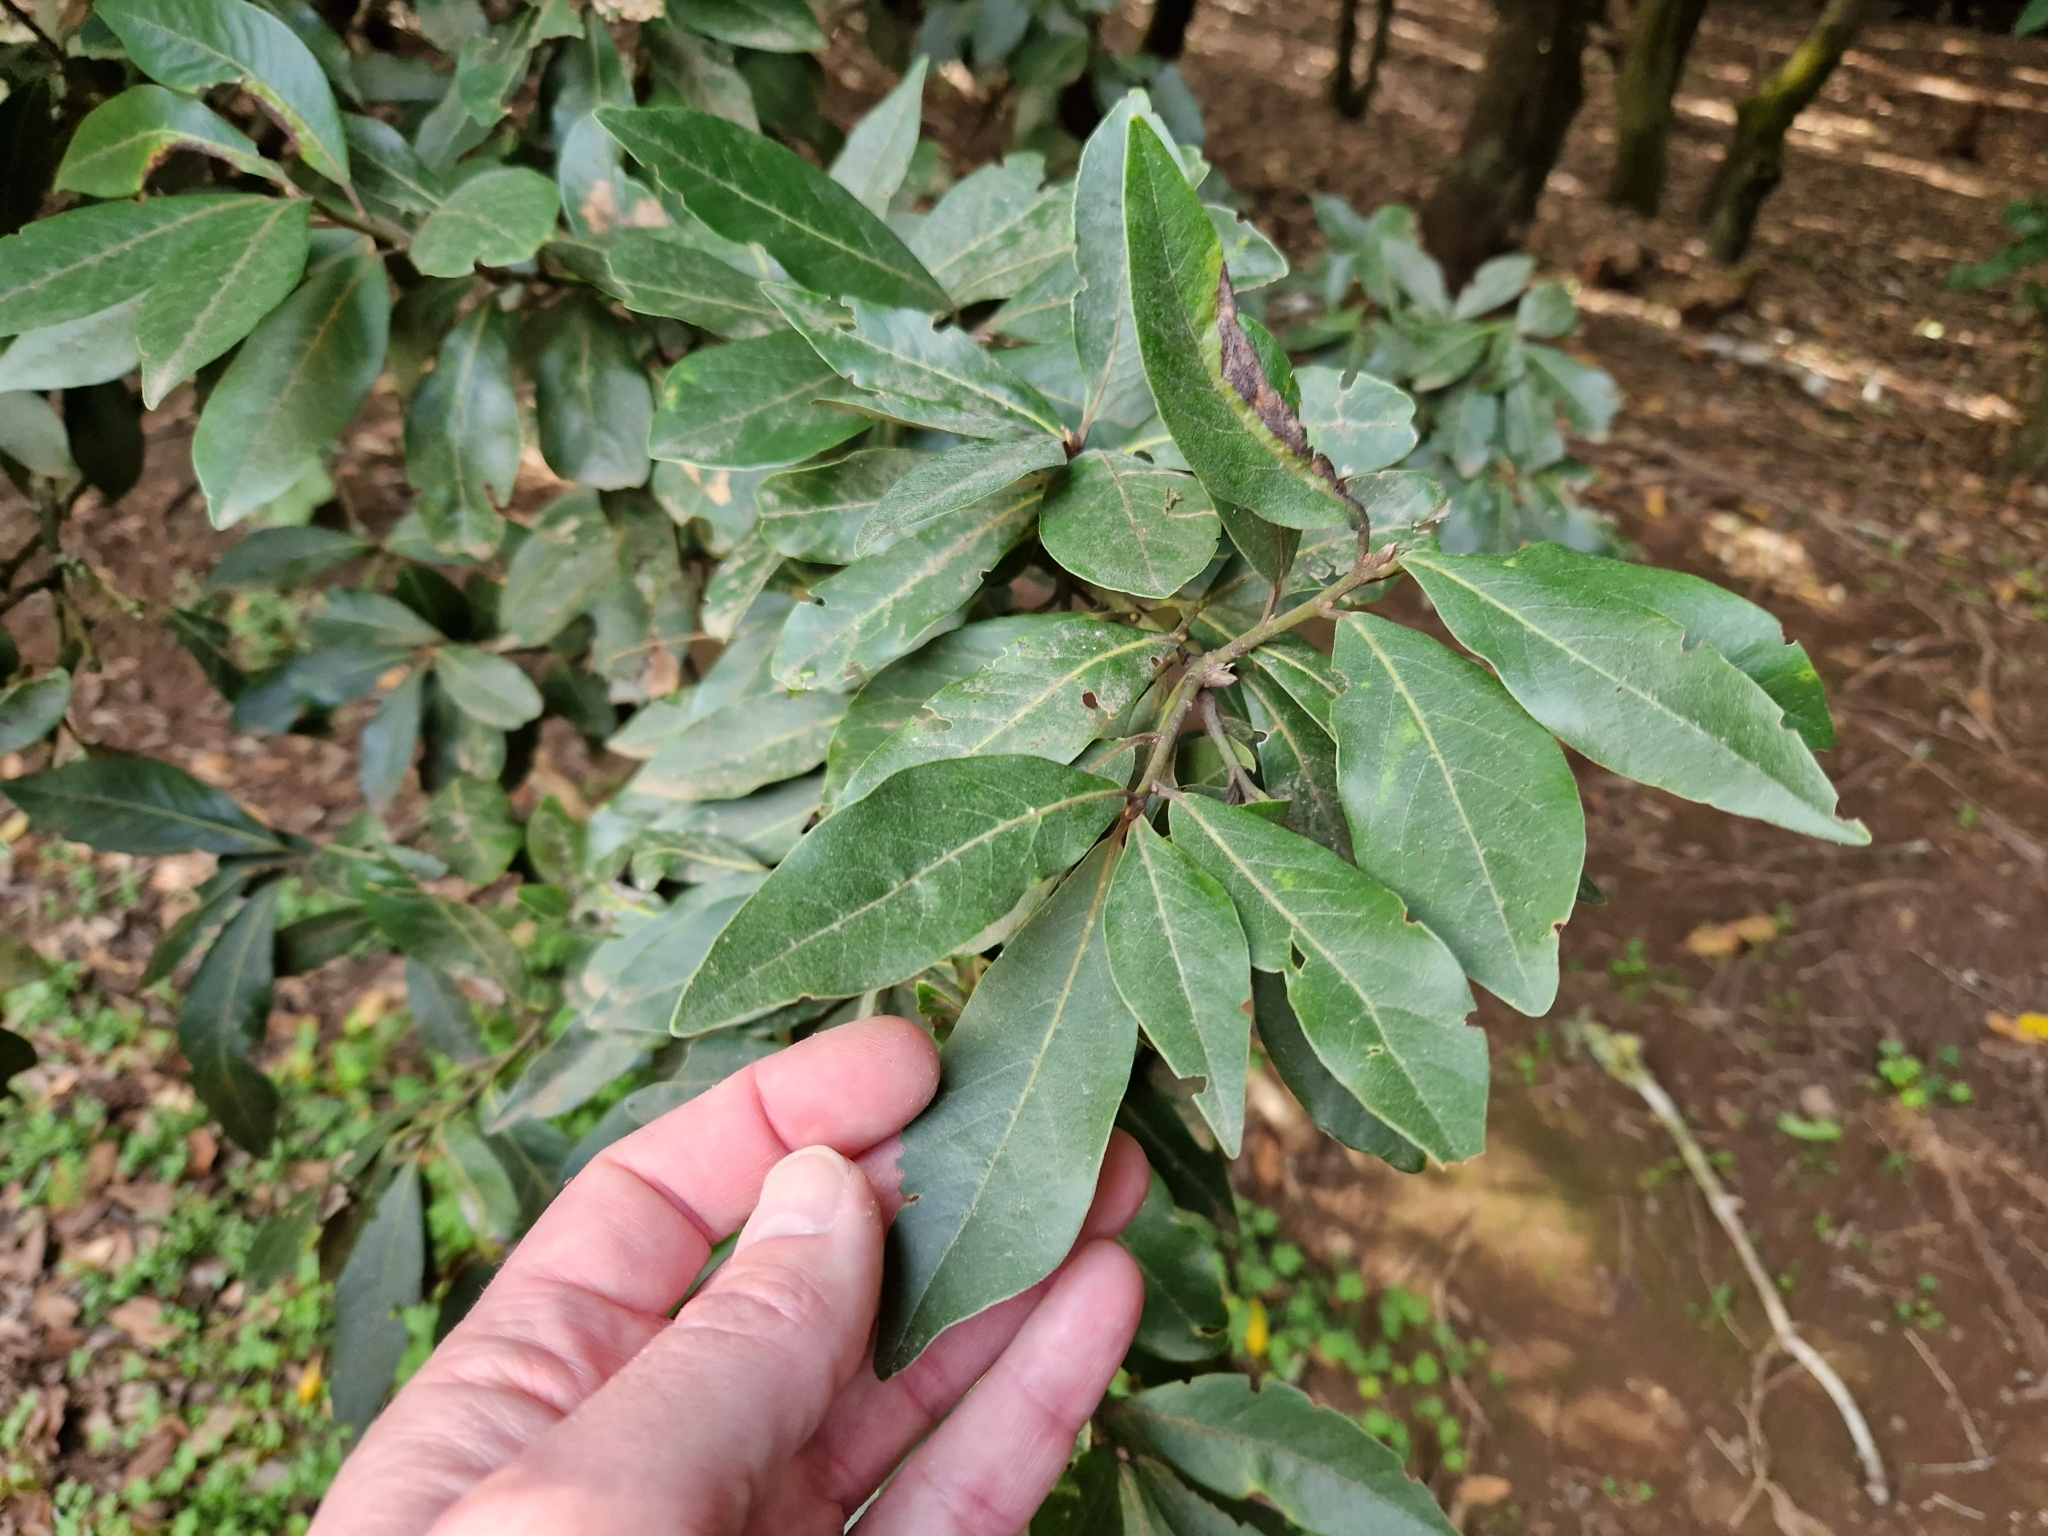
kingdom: Plantae
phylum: Tracheophyta
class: Magnoliopsida
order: Laurales
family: Lauraceae
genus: Laurus
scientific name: Laurus novocanariensis
